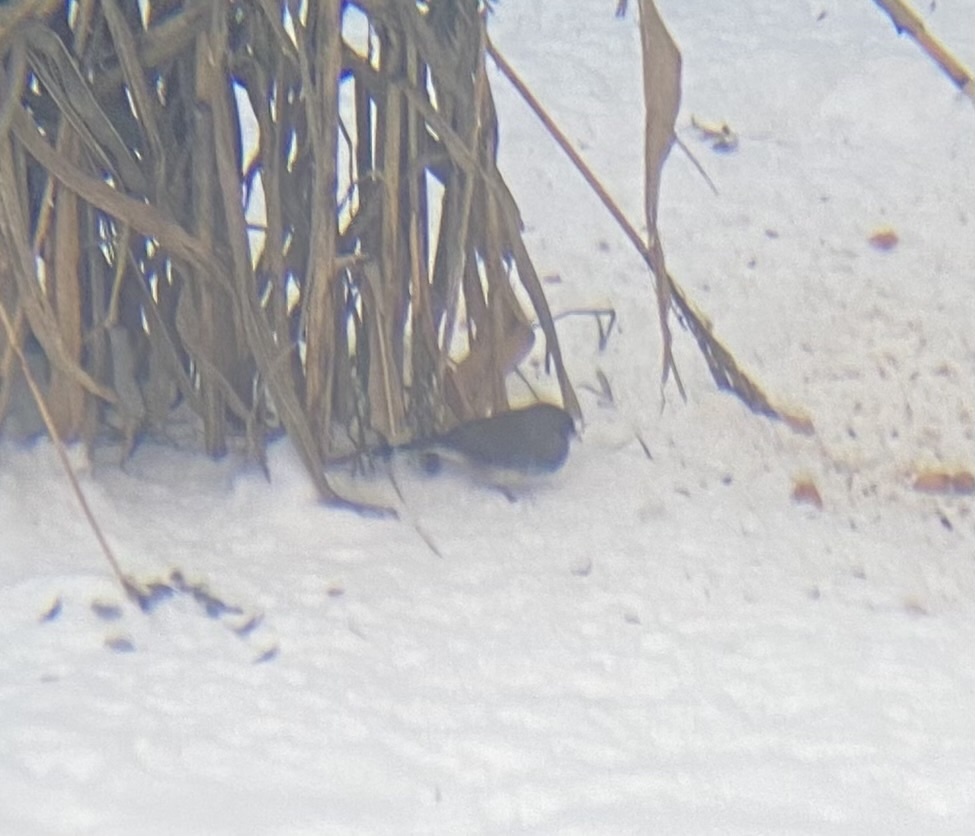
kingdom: Animalia
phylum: Chordata
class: Aves
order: Passeriformes
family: Passerellidae
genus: Junco
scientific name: Junco hyemalis
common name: Dark-eyed junco
